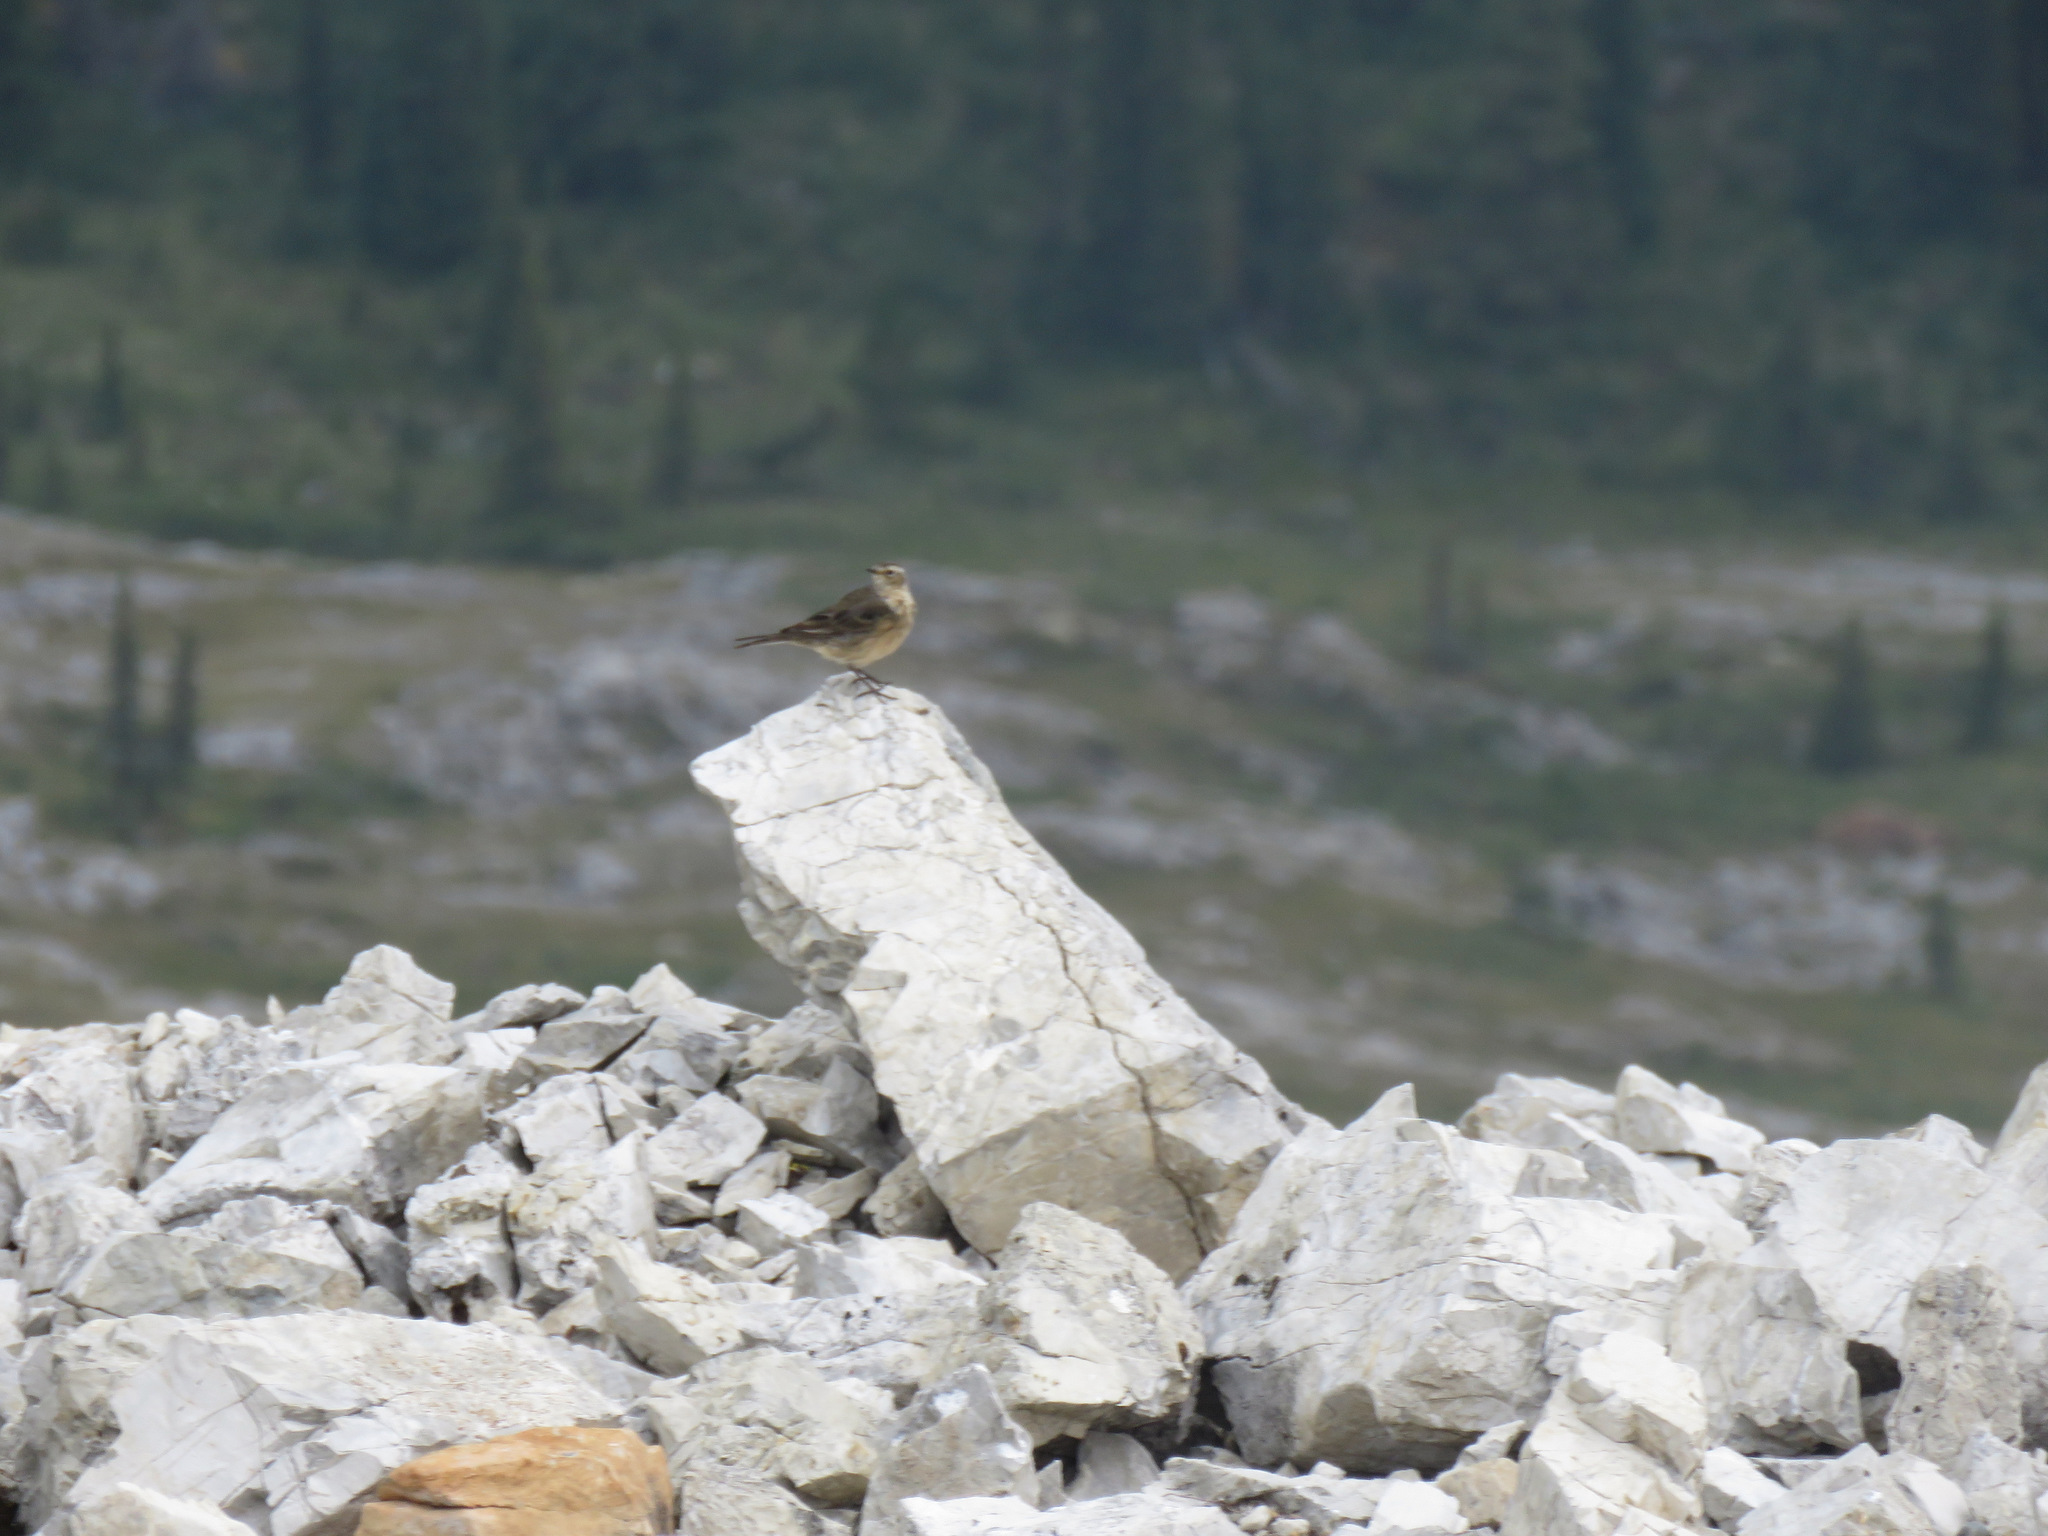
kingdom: Animalia
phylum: Chordata
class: Aves
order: Passeriformes
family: Motacillidae
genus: Anthus
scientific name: Anthus rubescens
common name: Buff-bellied pipit
